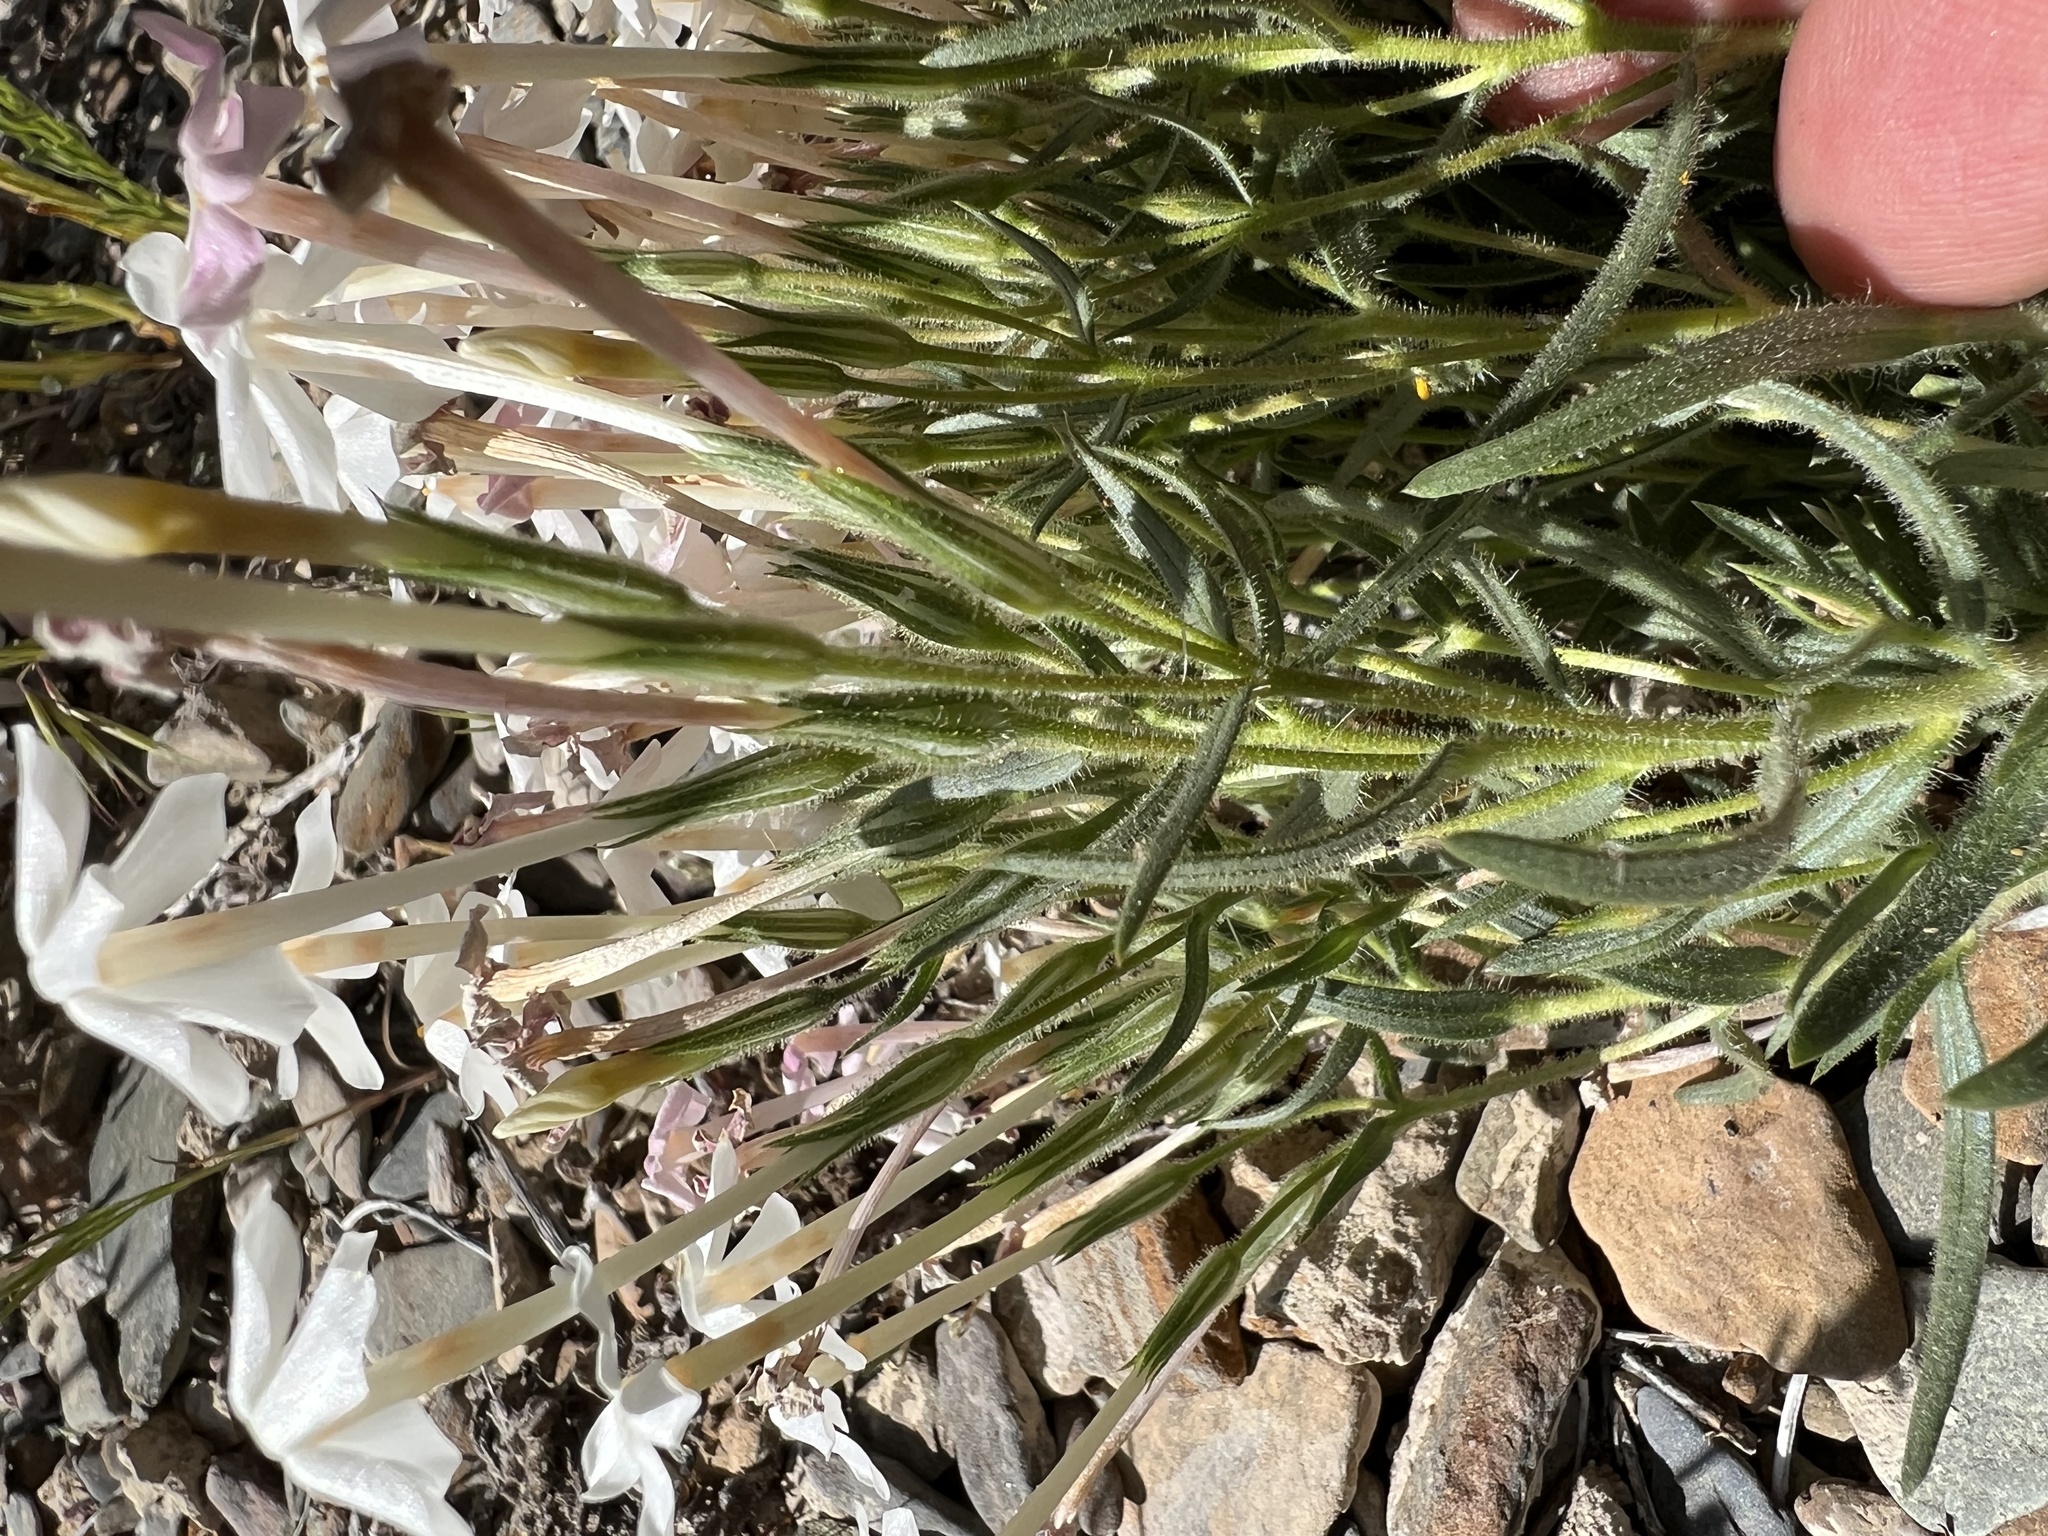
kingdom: Plantae
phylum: Tracheophyta
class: Magnoliopsida
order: Ericales
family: Polemoniaceae
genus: Phlox
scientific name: Phlox longifolia
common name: Longleaf phlox
